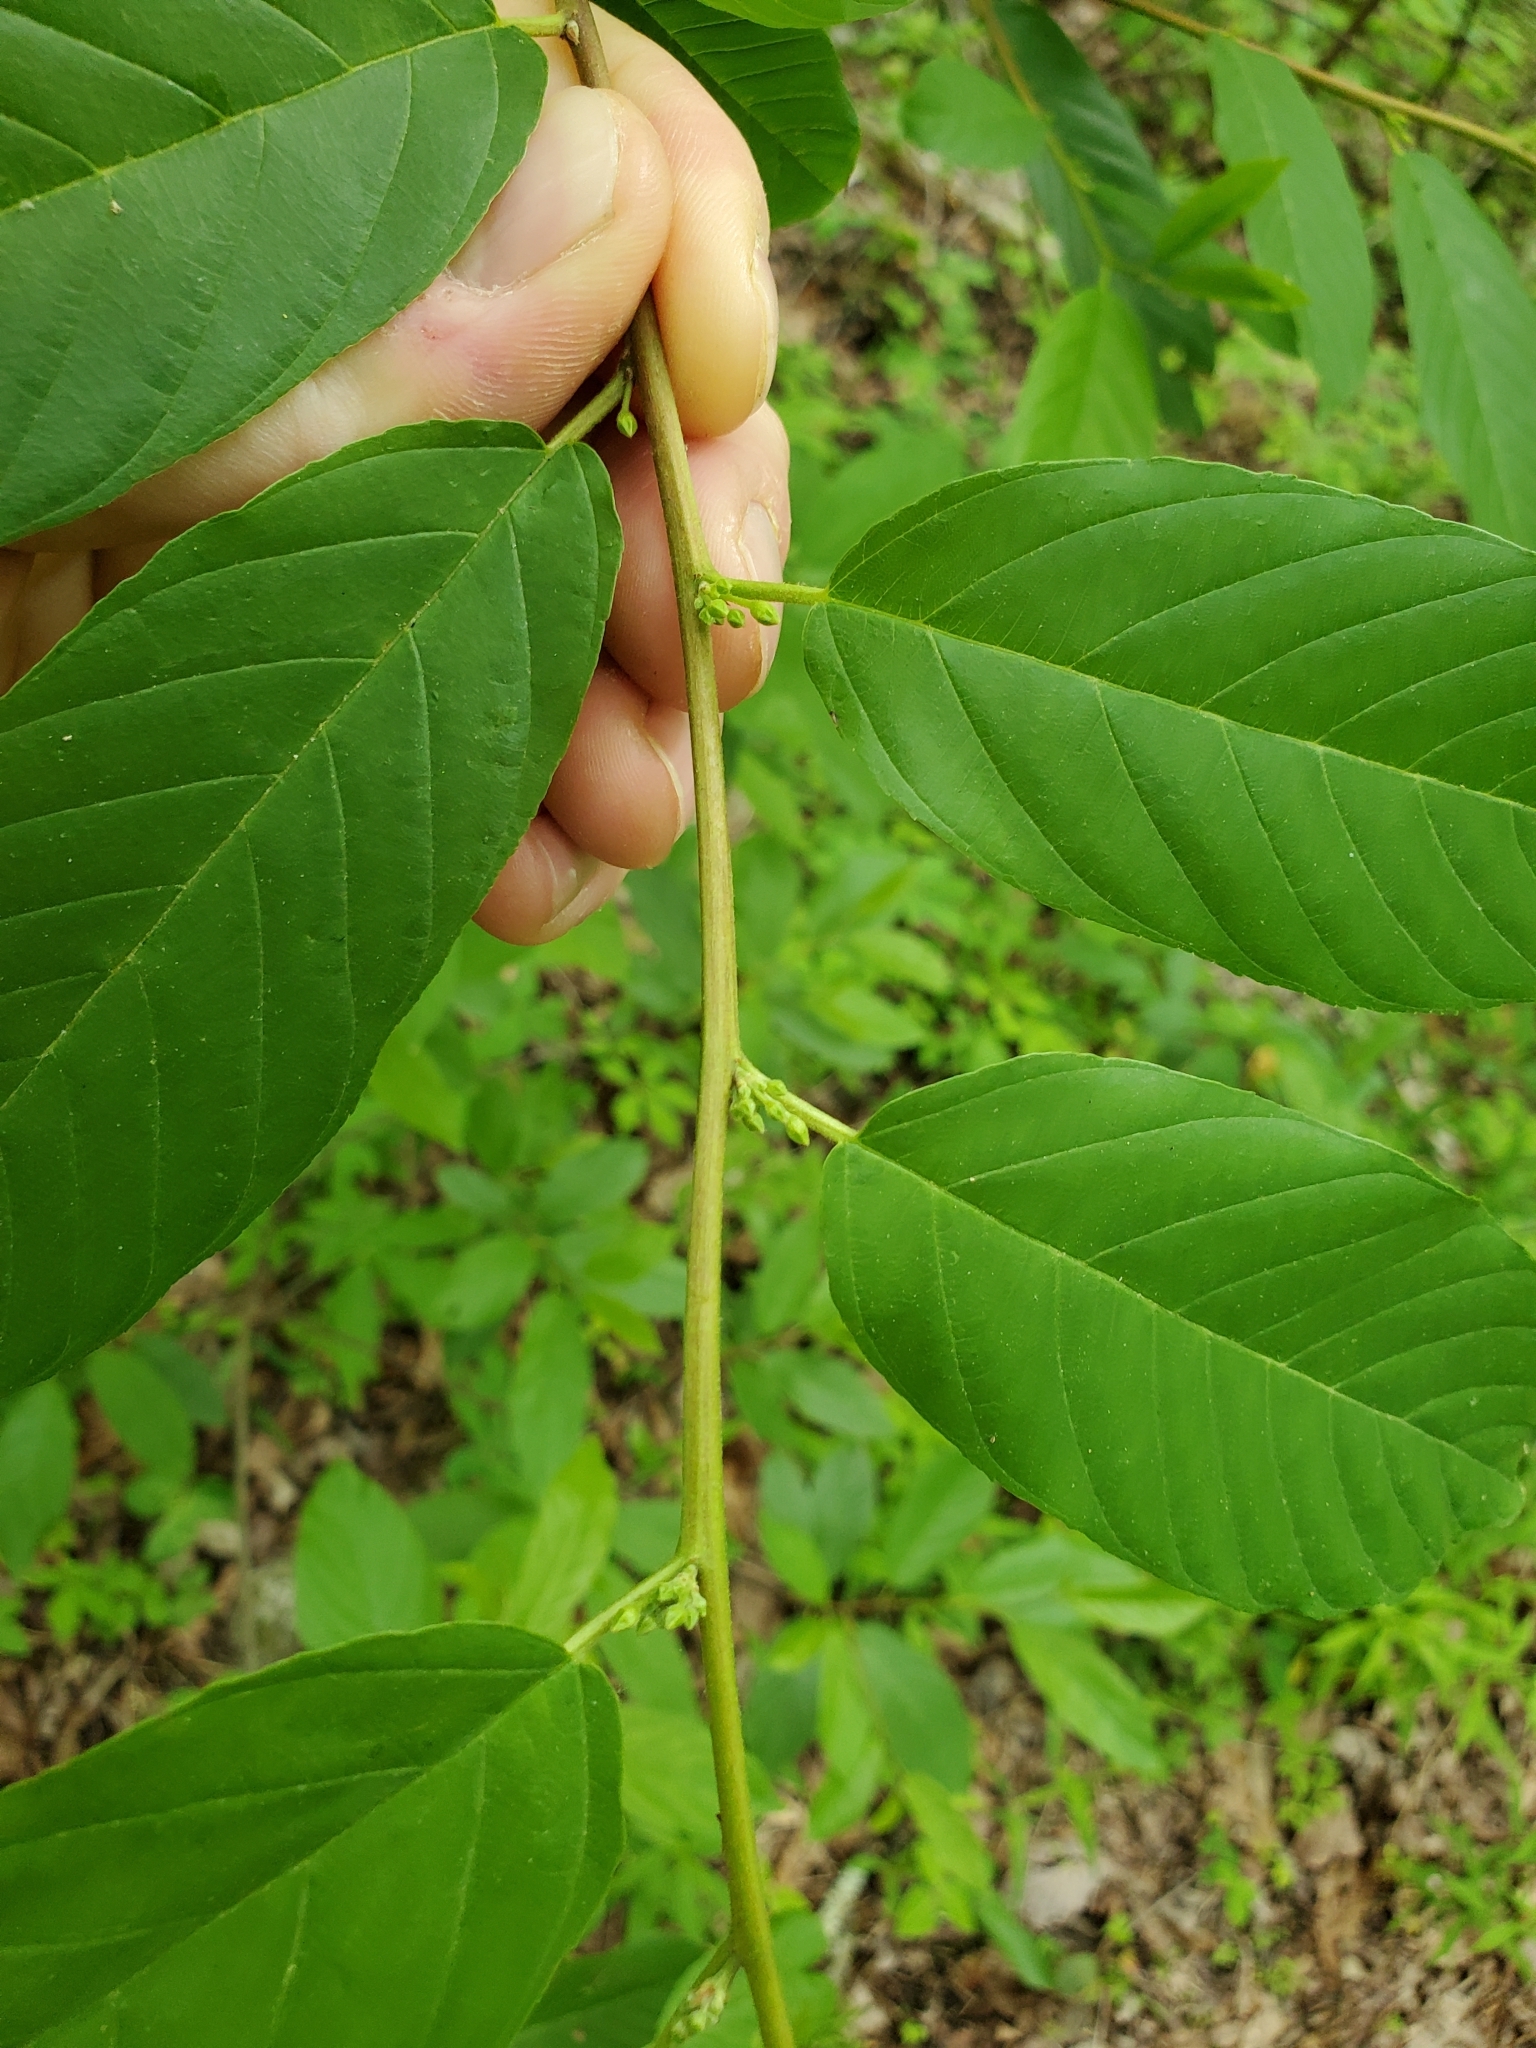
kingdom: Plantae
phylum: Tracheophyta
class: Magnoliopsida
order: Rosales
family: Rhamnaceae
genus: Frangula
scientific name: Frangula caroliniana
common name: Carolina buckthorn
